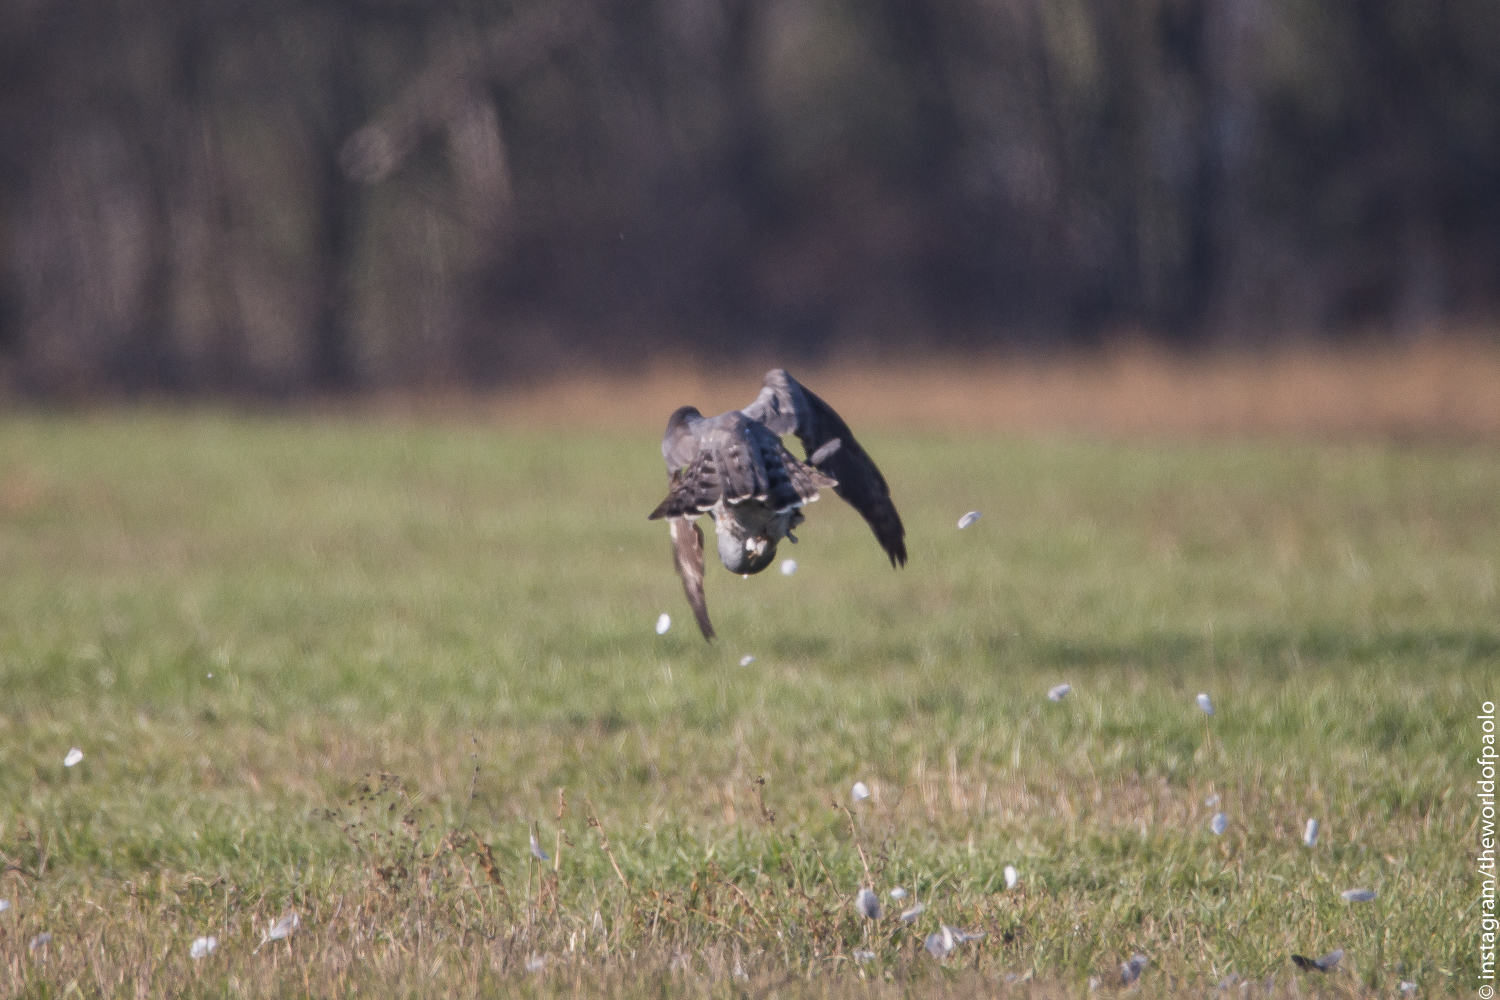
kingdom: Animalia
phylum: Chordata
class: Aves
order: Accipitriformes
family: Accipitridae
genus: Accipiter
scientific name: Accipiter gentilis
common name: Northern goshawk
